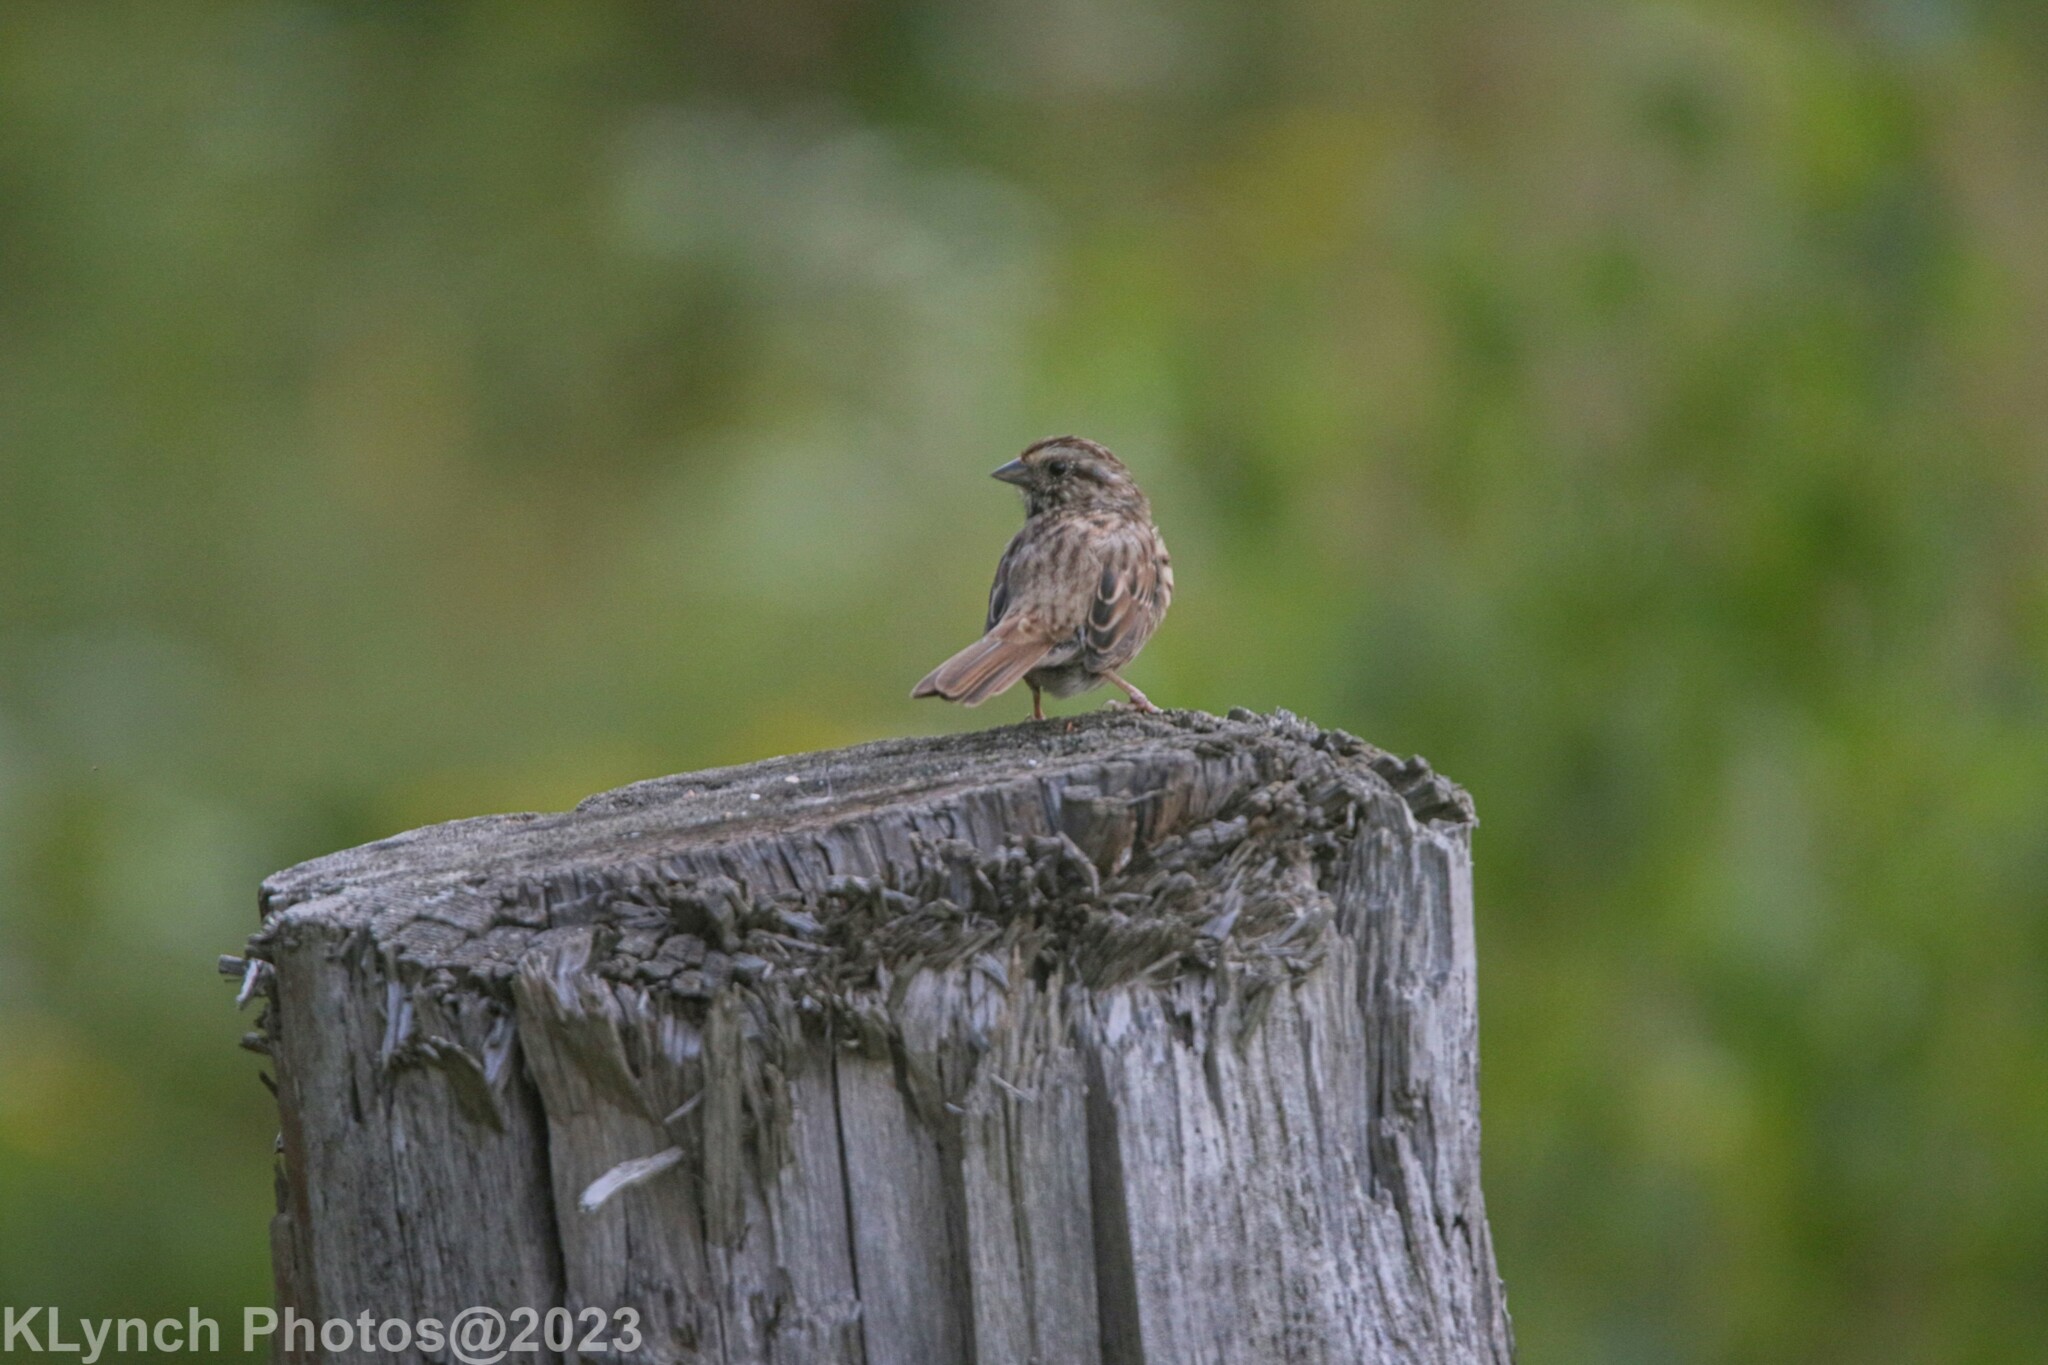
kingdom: Animalia
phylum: Chordata
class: Aves
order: Passeriformes
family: Passerellidae
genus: Melospiza
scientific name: Melospiza melodia
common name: Song sparrow
